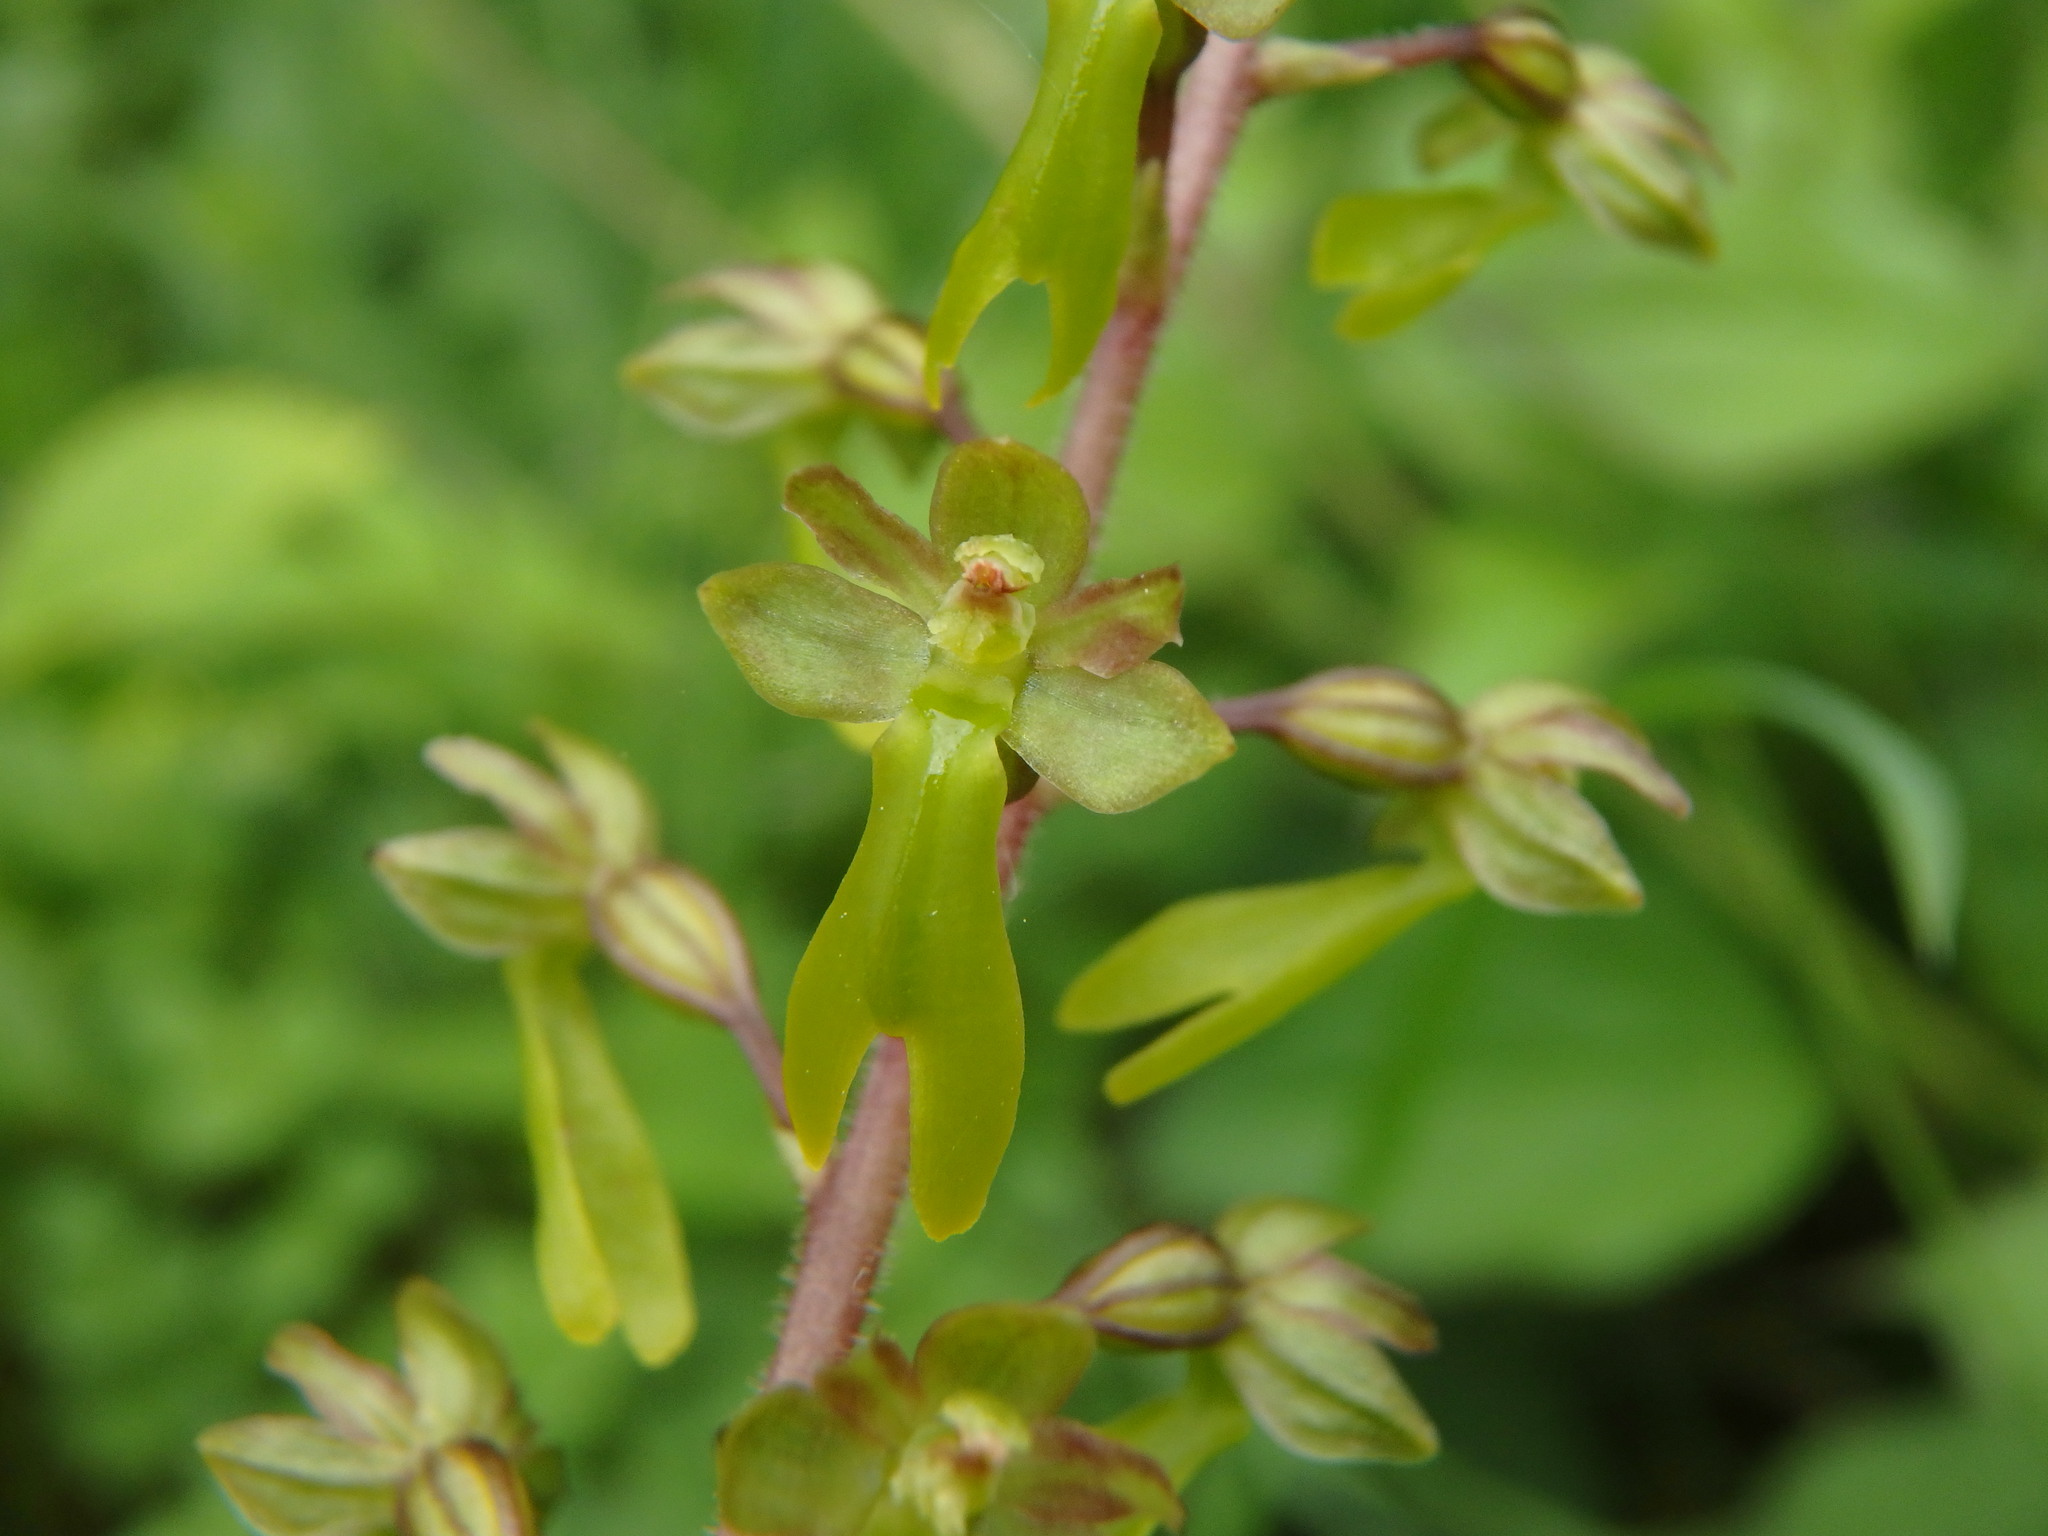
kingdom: Plantae
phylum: Tracheophyta
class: Liliopsida
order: Asparagales
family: Orchidaceae
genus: Neottia
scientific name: Neottia ovata
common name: Common twayblade
